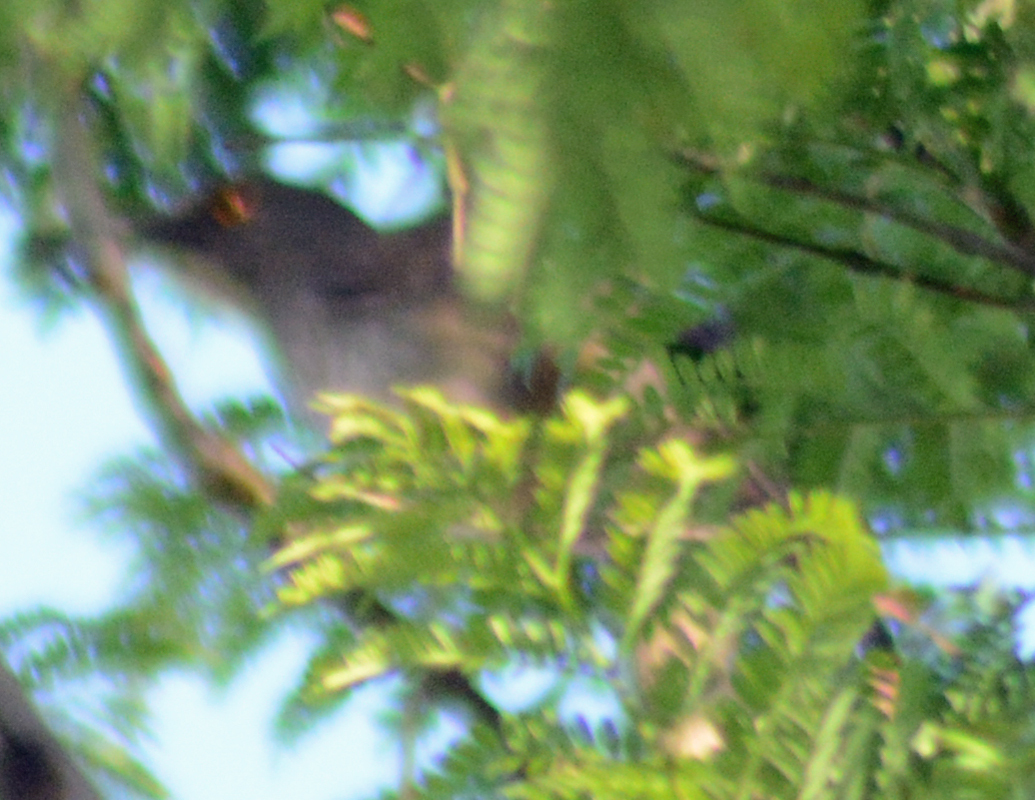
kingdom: Animalia
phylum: Chordata
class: Aves
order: Passeriformes
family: Mimidae
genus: Toxostoma
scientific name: Toxostoma curvirostre
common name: Curve-billed thrasher
